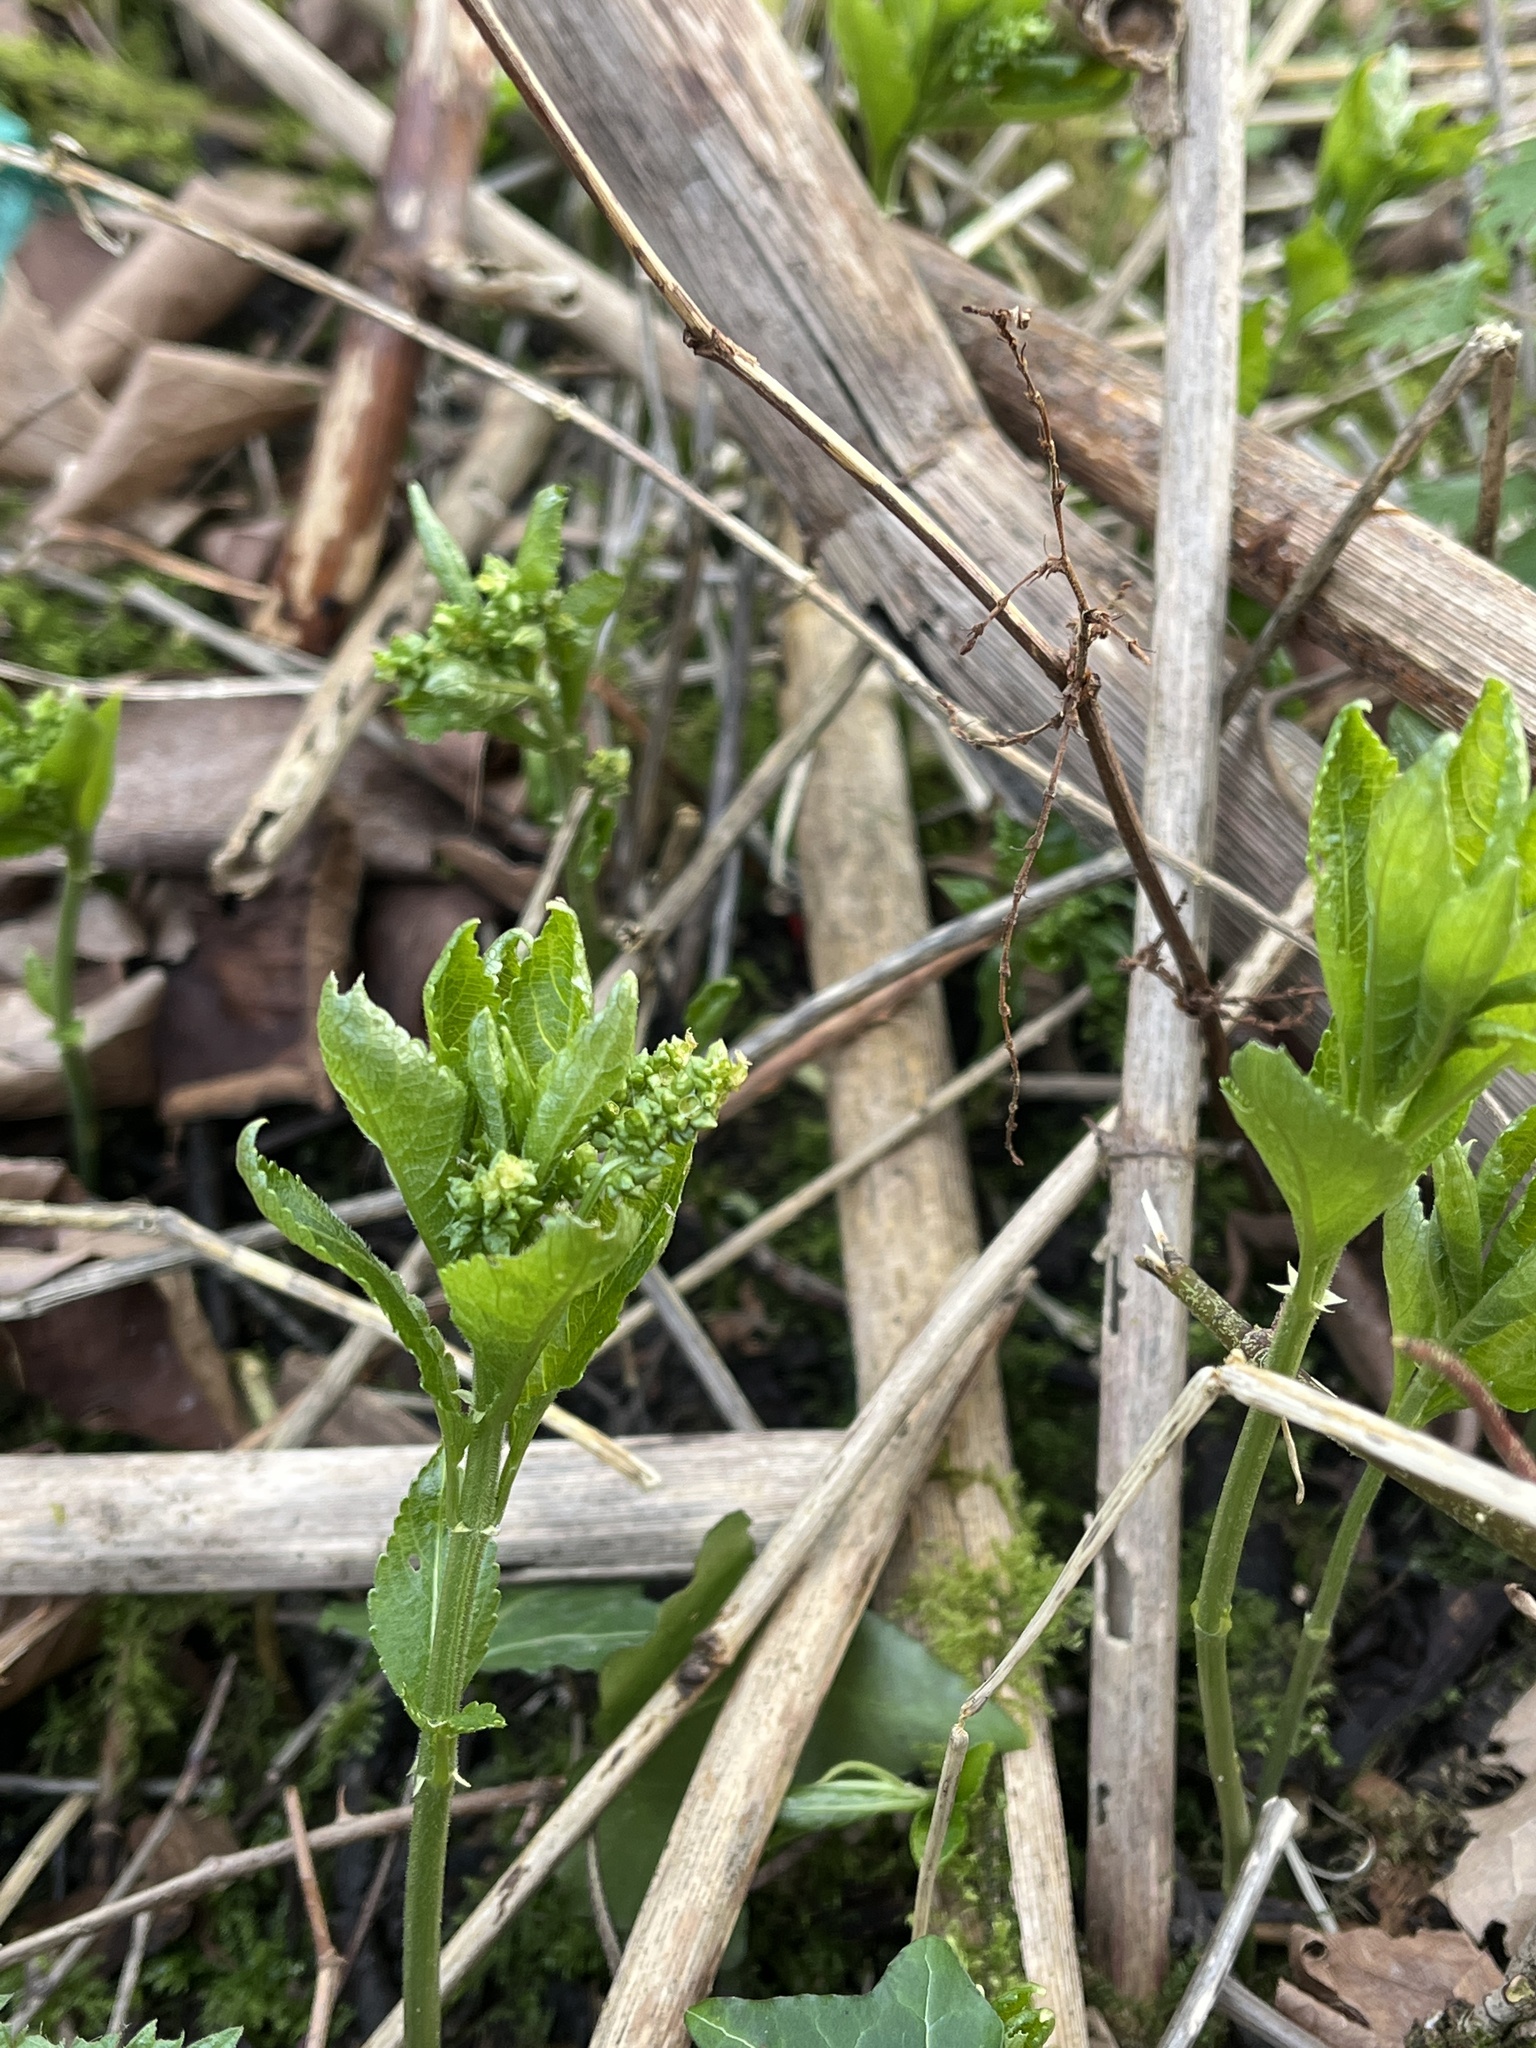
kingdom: Plantae
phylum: Tracheophyta
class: Magnoliopsida
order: Malpighiales
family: Euphorbiaceae
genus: Mercurialis
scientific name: Mercurialis perennis
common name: Dog mercury
